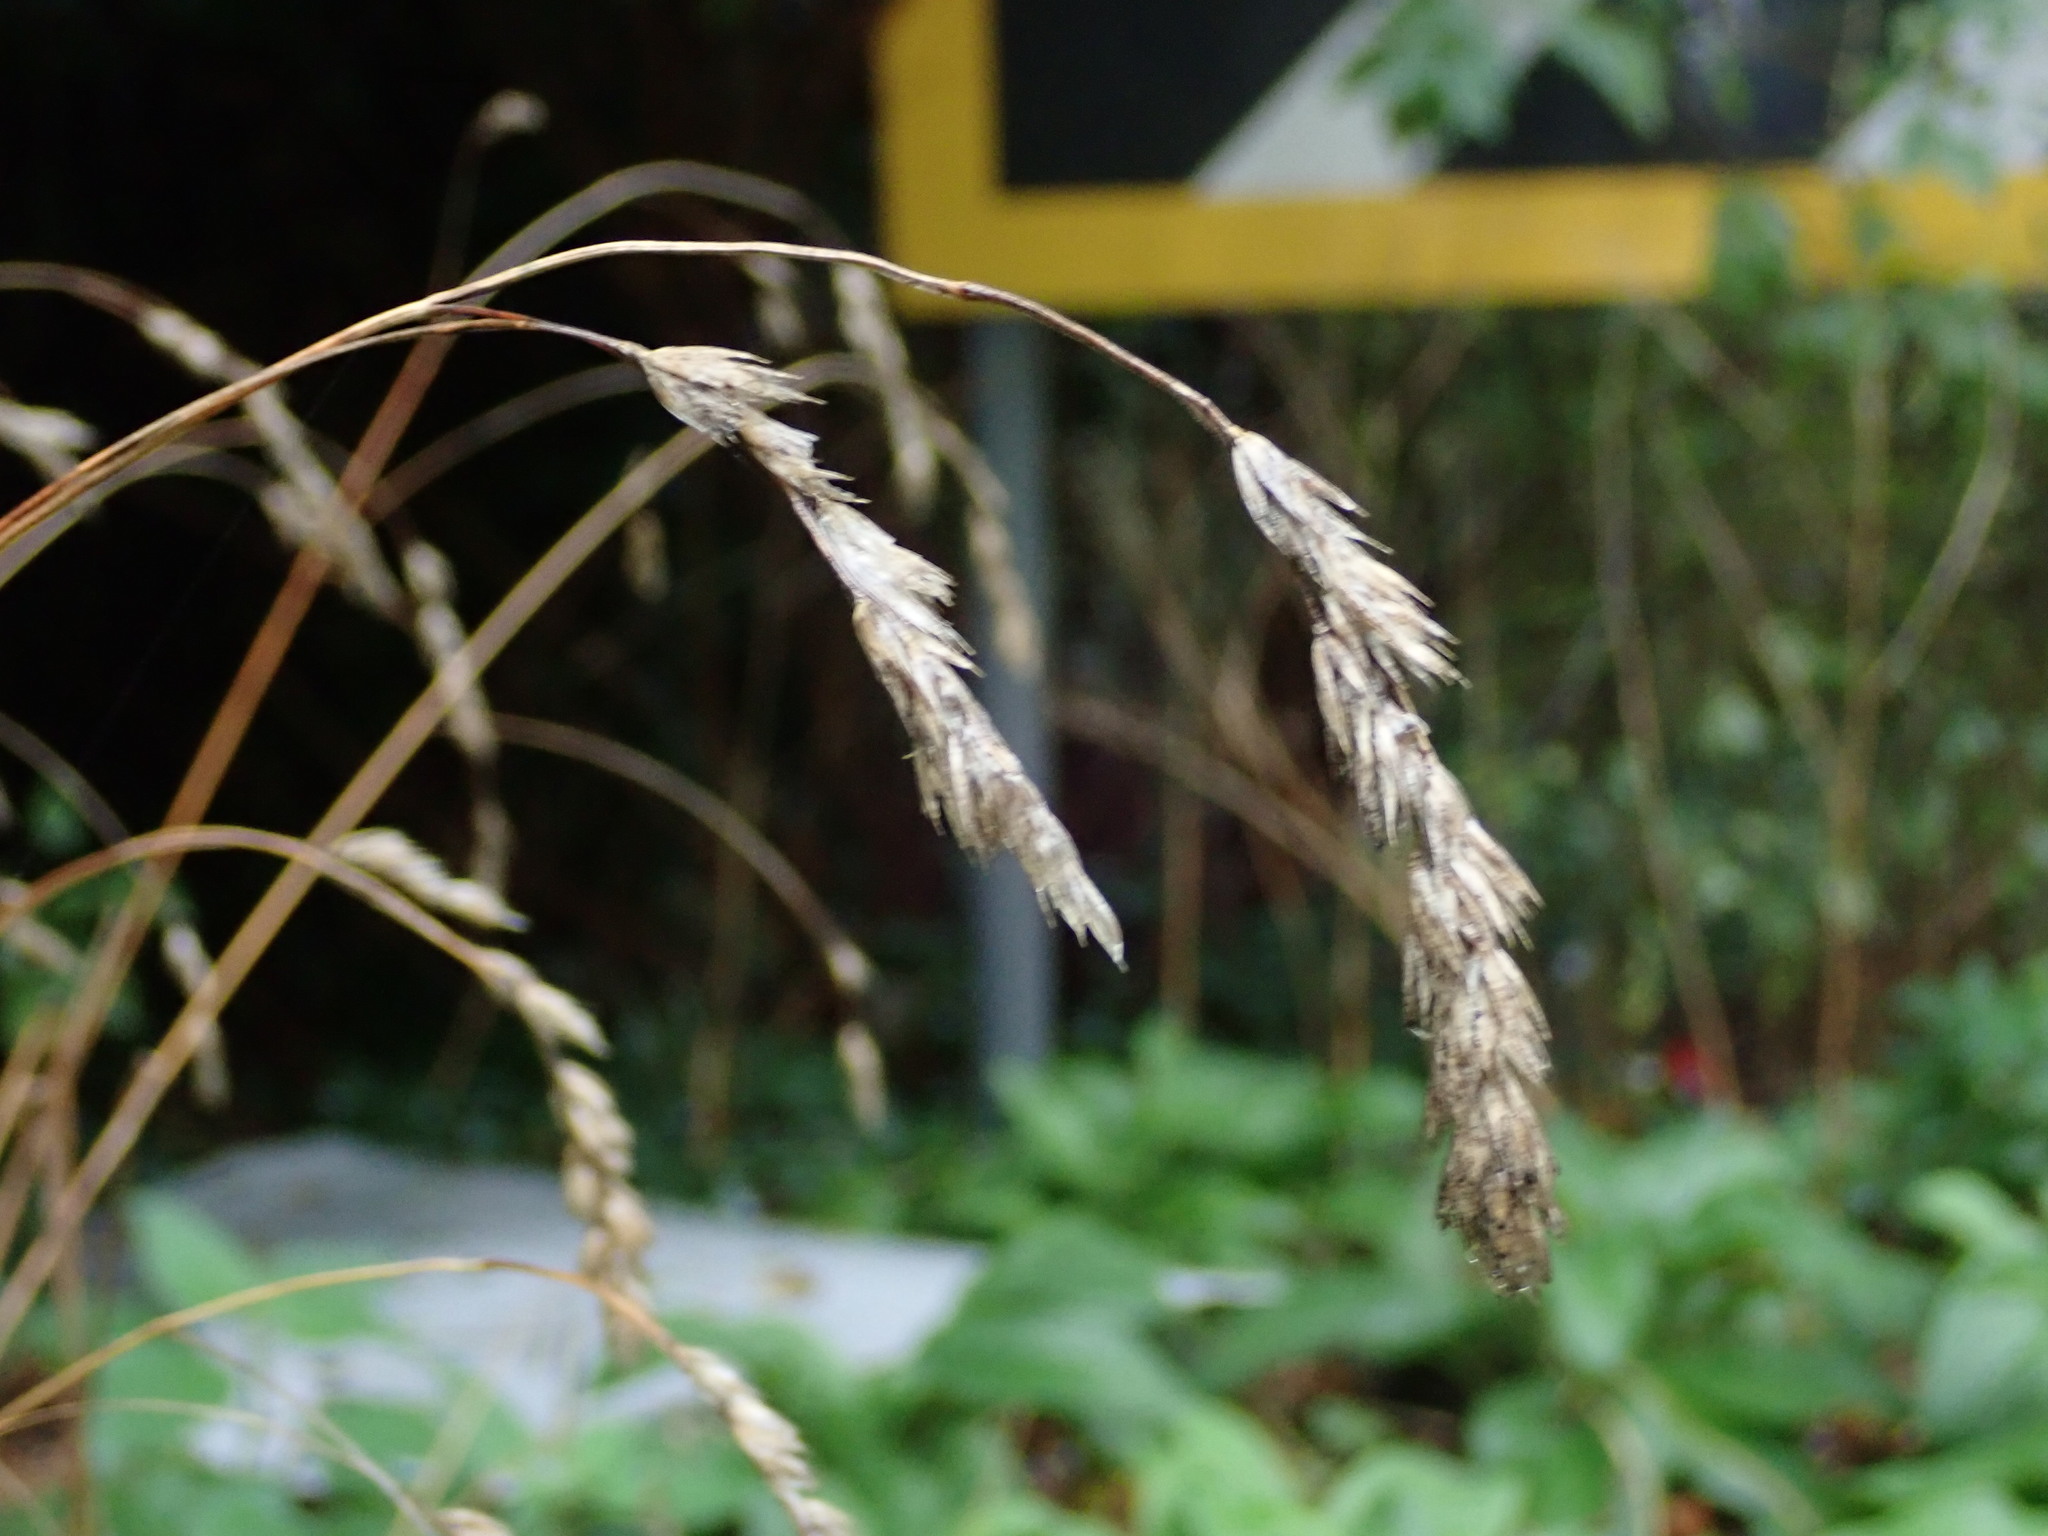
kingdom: Plantae
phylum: Tracheophyta
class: Liliopsida
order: Poales
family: Poaceae
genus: Dactylis
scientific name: Dactylis glomerata
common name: Orchardgrass
